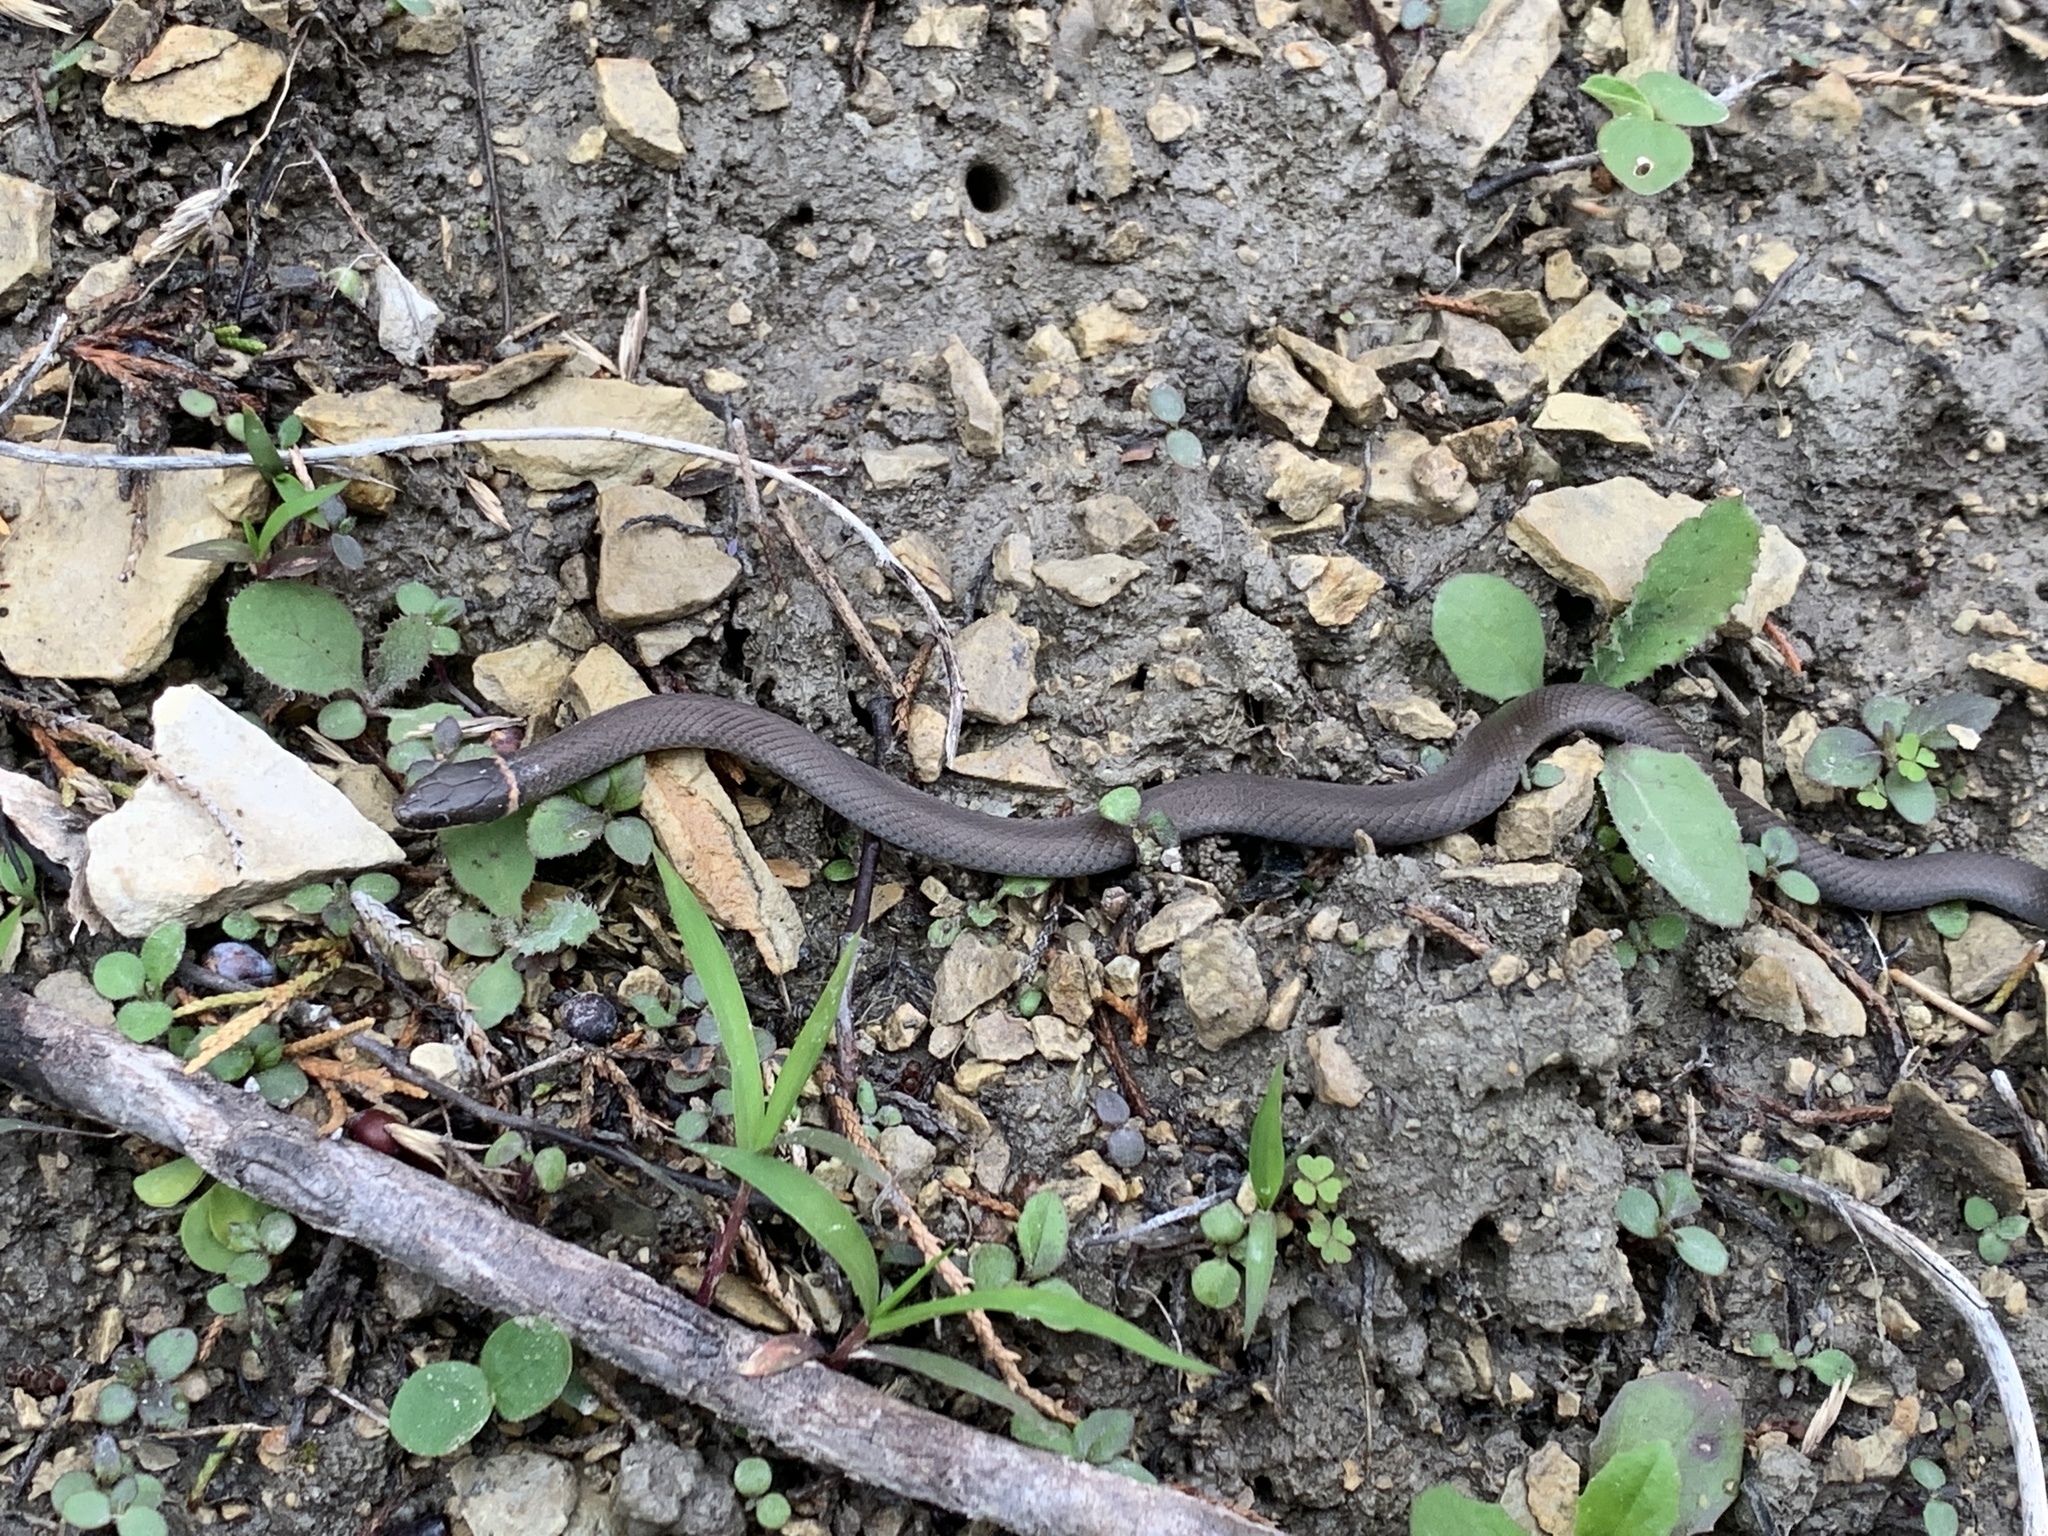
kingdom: Animalia
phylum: Chordata
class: Squamata
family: Colubridae
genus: Diadophis
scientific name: Diadophis punctatus
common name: Ringneck snake
